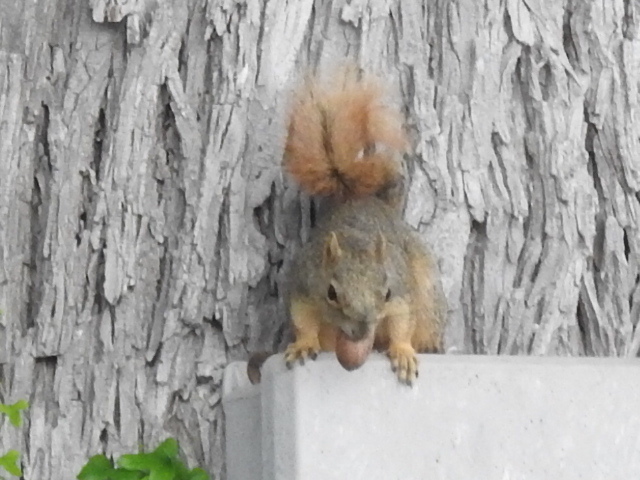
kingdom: Animalia
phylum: Chordata
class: Mammalia
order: Rodentia
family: Sciuridae
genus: Sciurus
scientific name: Sciurus niger
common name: Fox squirrel
